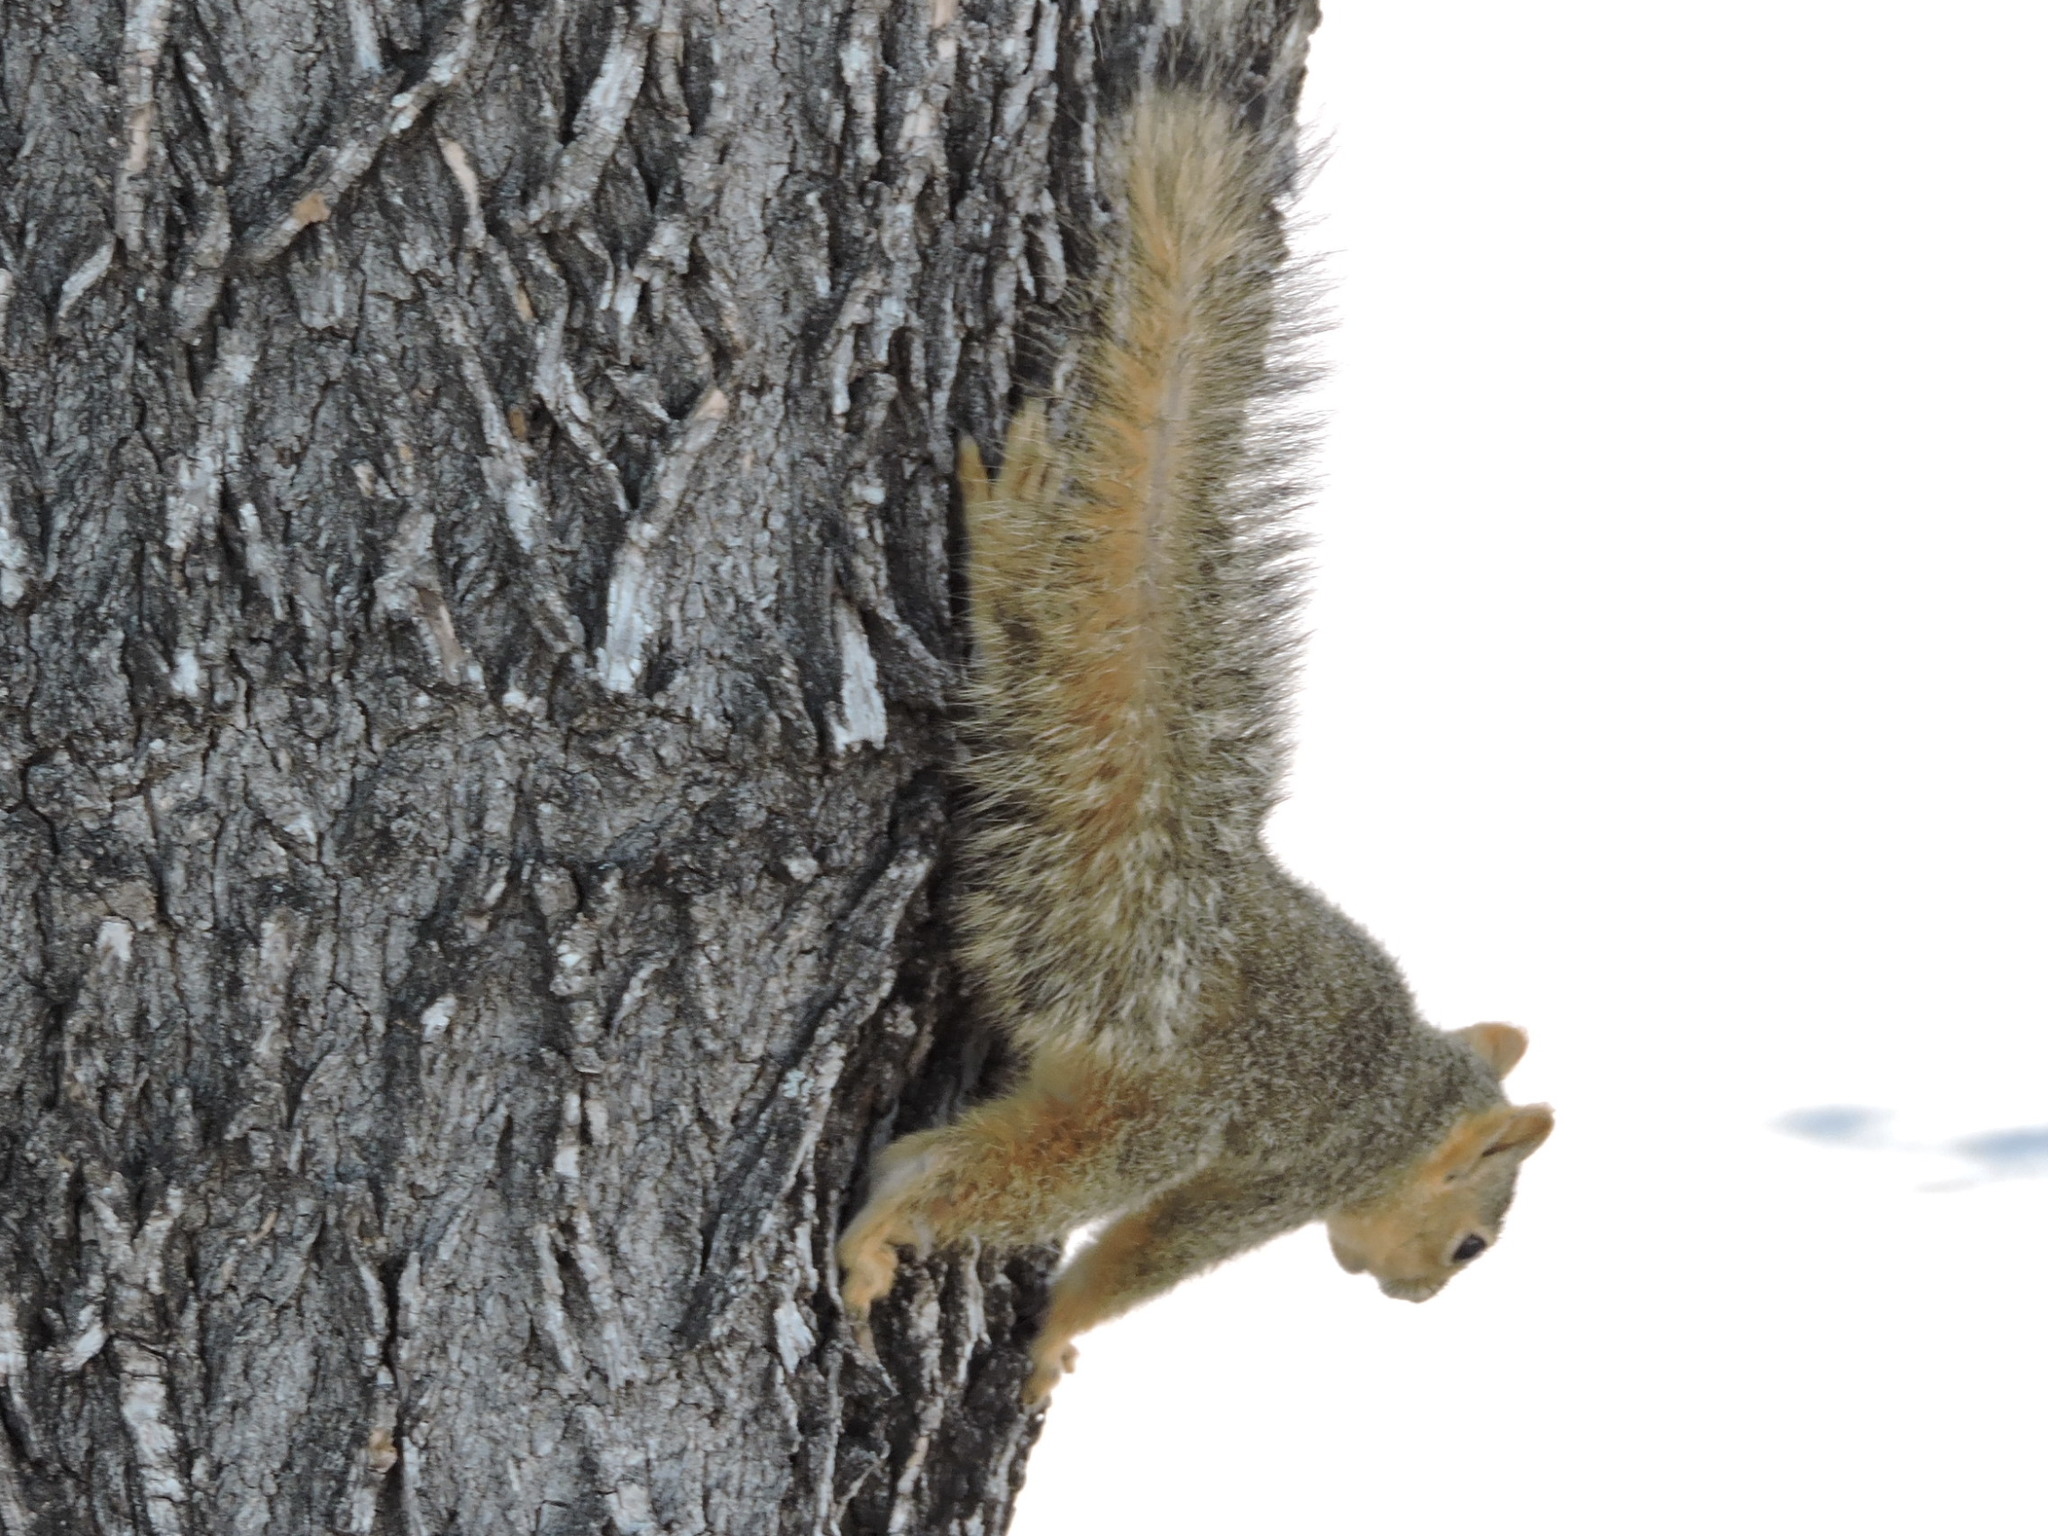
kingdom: Animalia
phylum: Chordata
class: Mammalia
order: Rodentia
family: Sciuridae
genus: Sciurus
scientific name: Sciurus niger
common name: Fox squirrel
